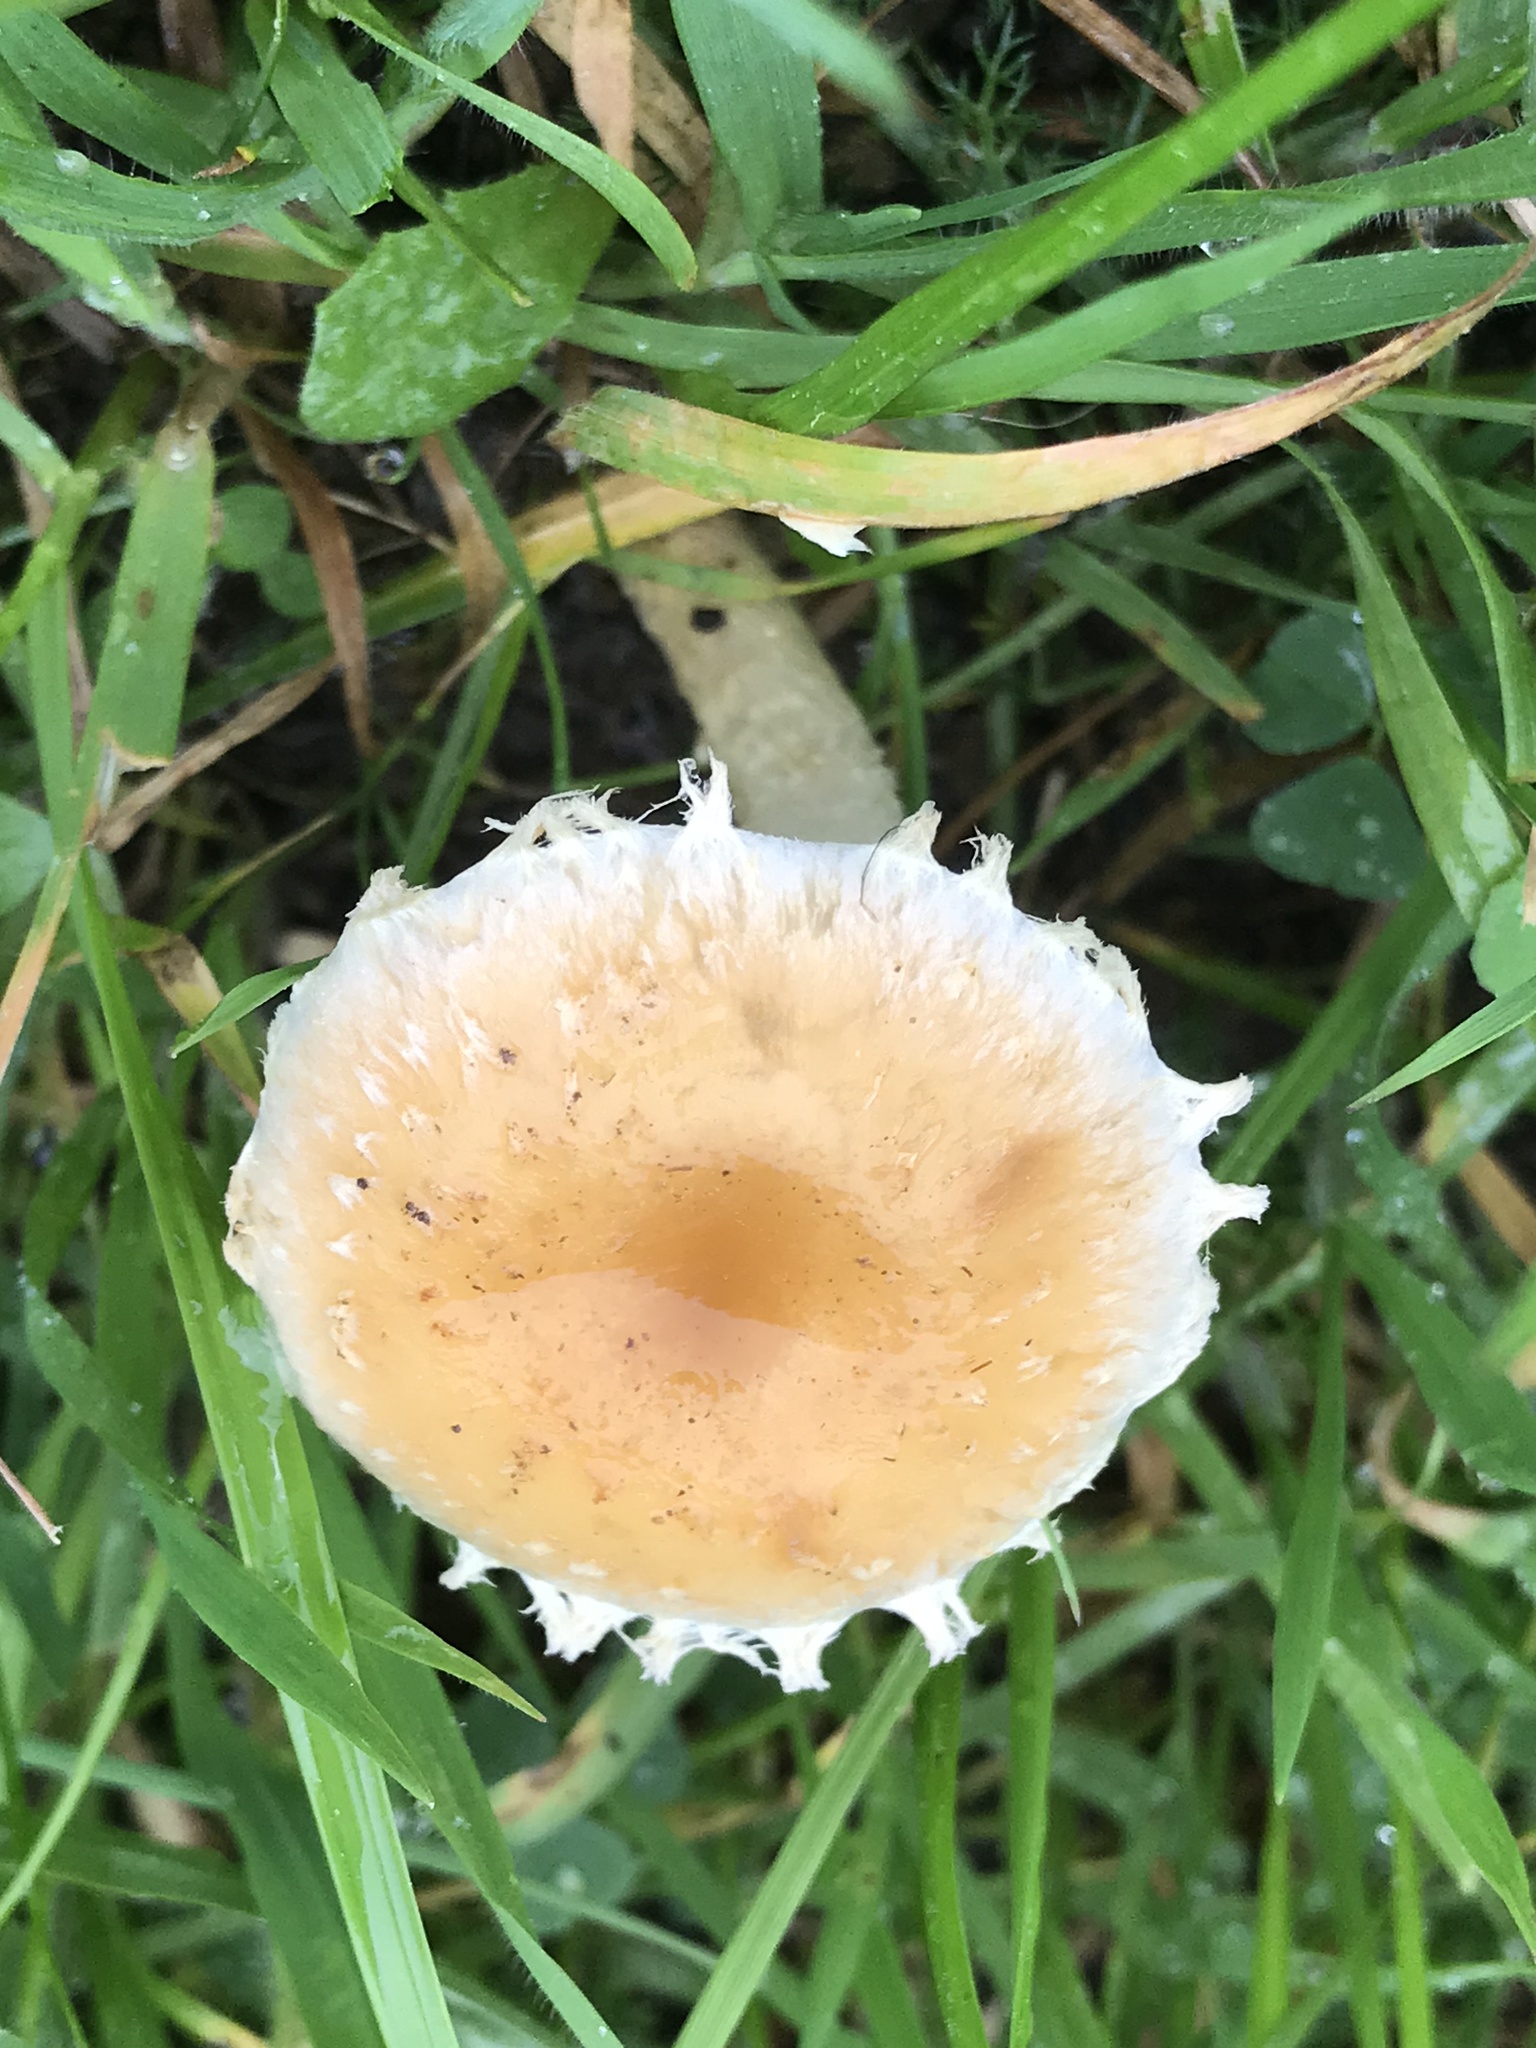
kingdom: Fungi
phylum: Basidiomycota
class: Agaricomycetes
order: Agaricales
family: Strophariaceae
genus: Leratiomyces
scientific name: Leratiomyces percevalii
